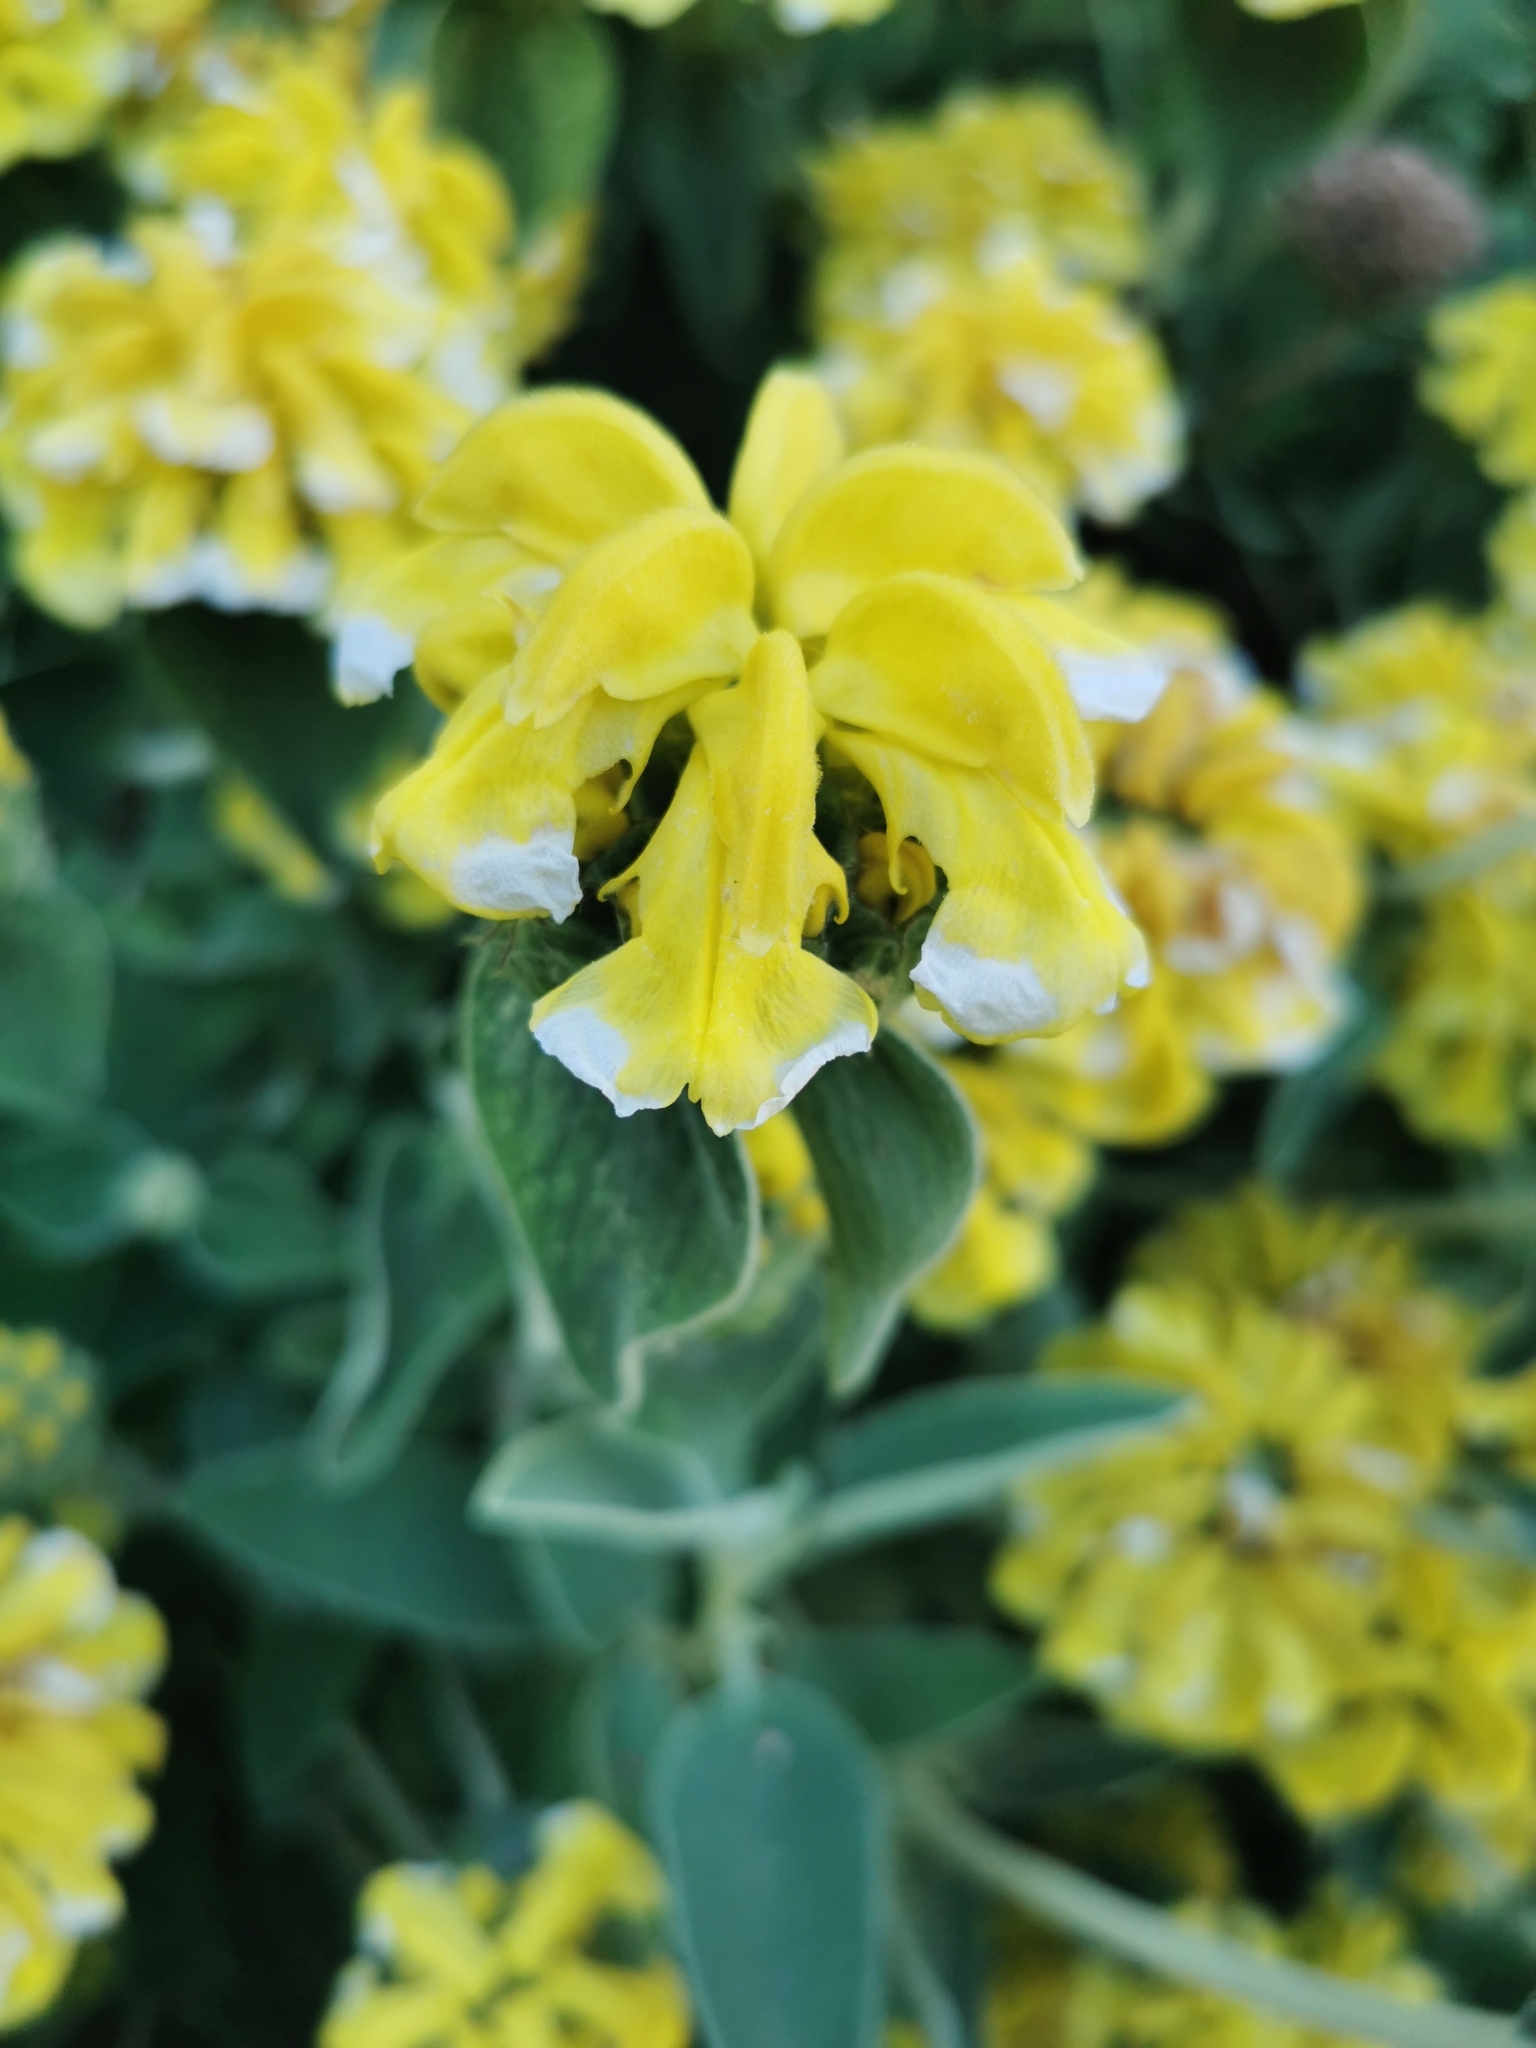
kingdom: Plantae
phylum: Tracheophyta
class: Magnoliopsida
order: Lamiales
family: Lamiaceae
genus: Phlomis
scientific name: Phlomis fruticosa
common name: Jerusalem sage
